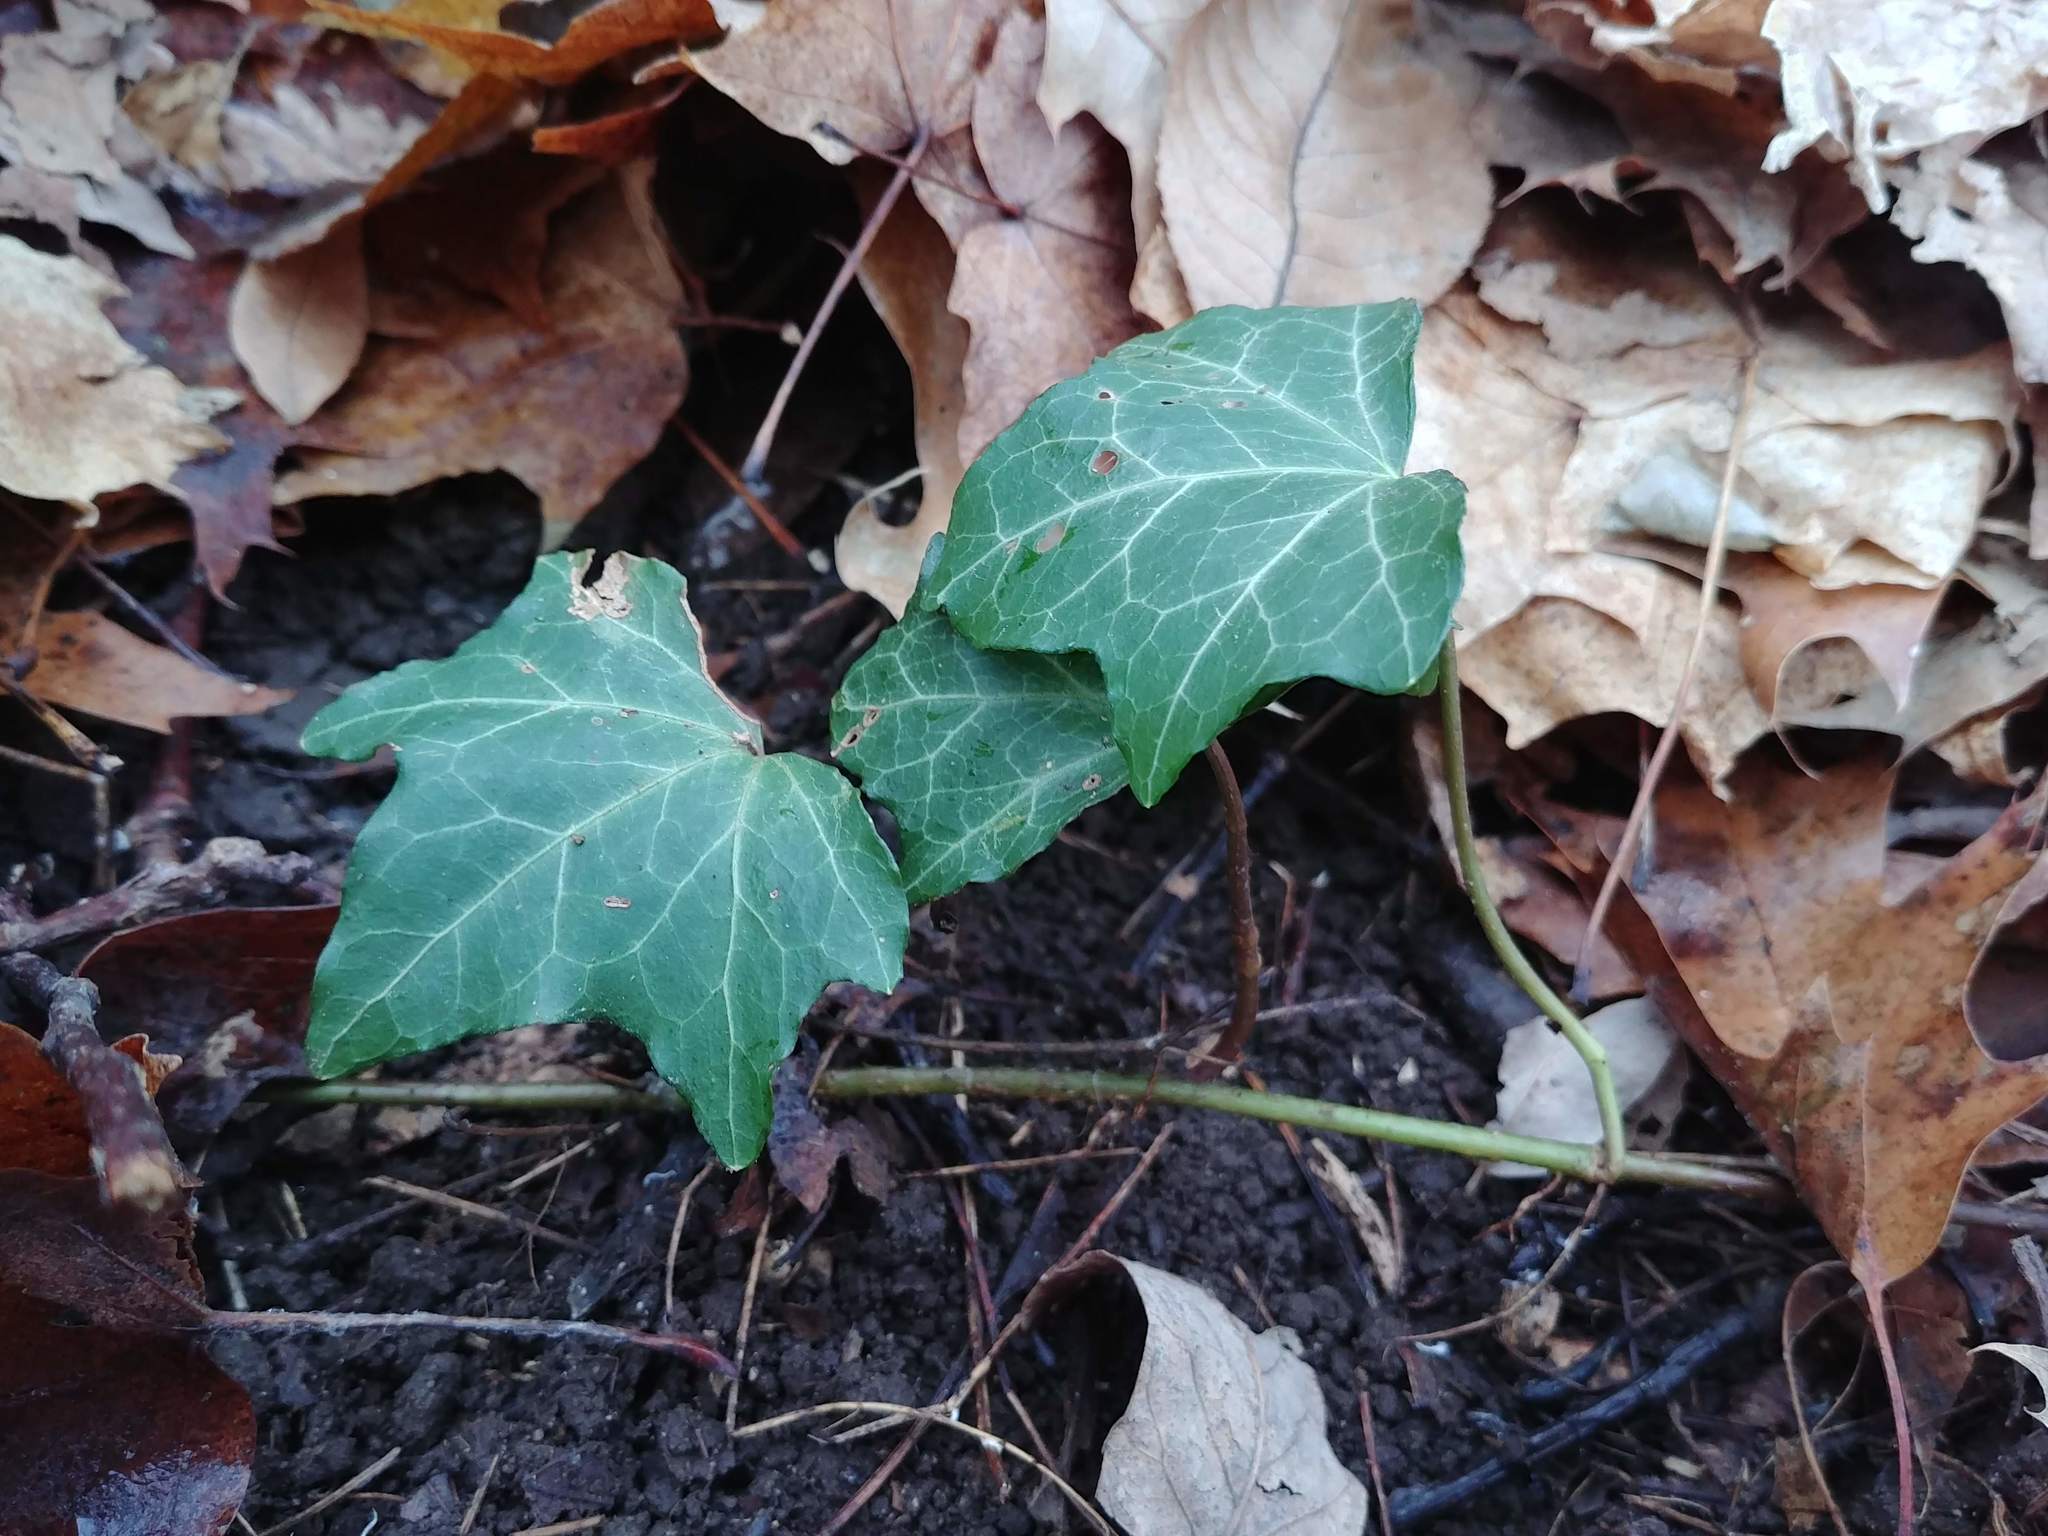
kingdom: Plantae
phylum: Tracheophyta
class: Magnoliopsida
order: Apiales
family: Araliaceae
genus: Hedera
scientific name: Hedera helix
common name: Ivy
